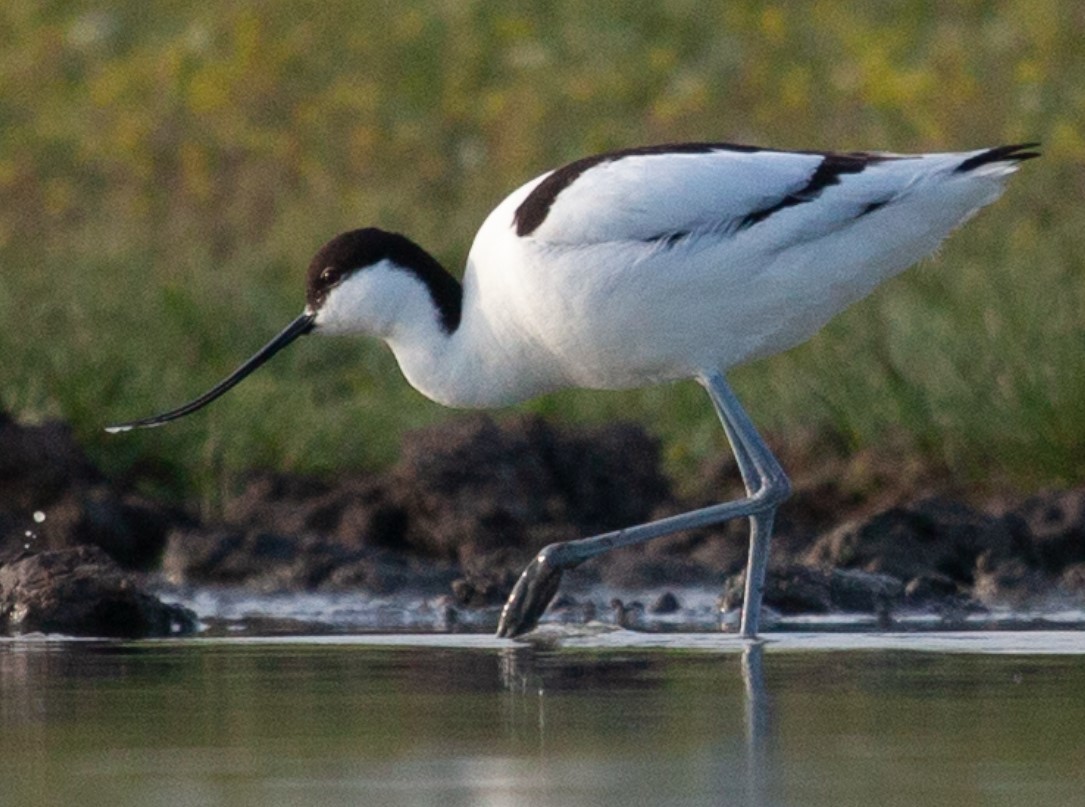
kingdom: Animalia
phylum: Chordata
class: Aves
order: Charadriiformes
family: Recurvirostridae
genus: Recurvirostra
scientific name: Recurvirostra avosetta
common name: Pied avocet
